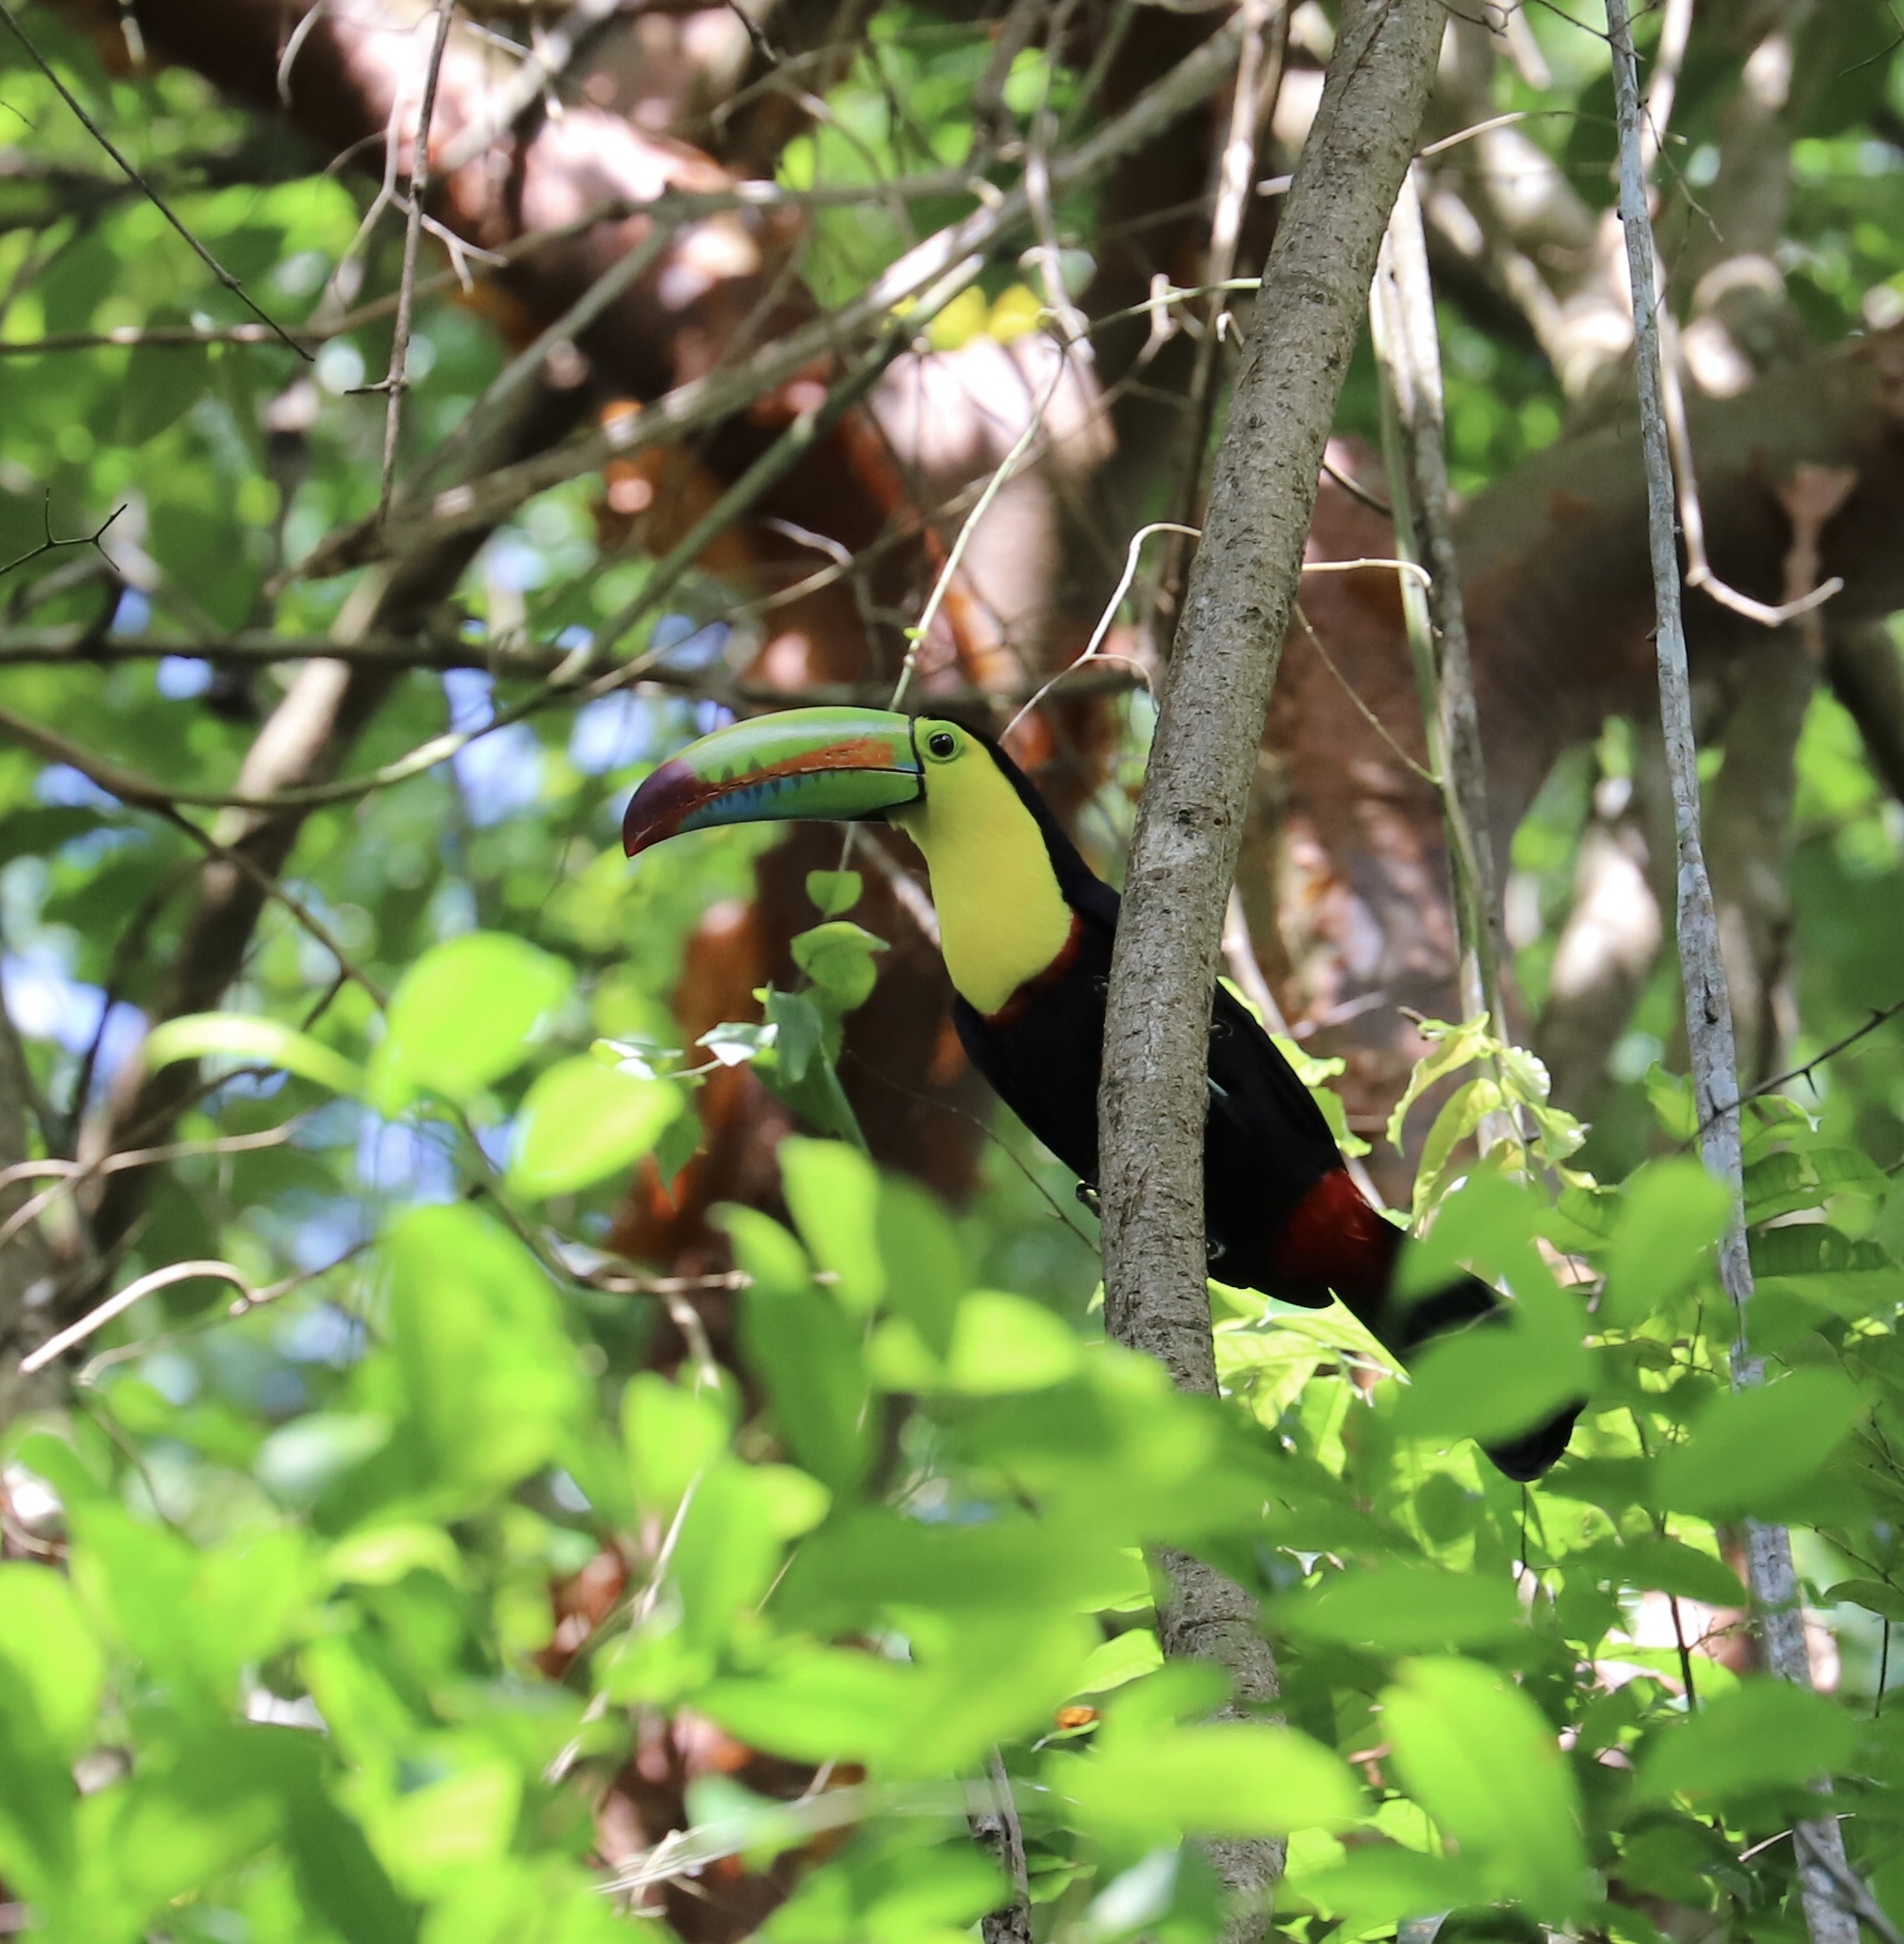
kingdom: Animalia
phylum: Chordata
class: Aves
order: Piciformes
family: Ramphastidae
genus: Ramphastos
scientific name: Ramphastos sulfuratus
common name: Keel-billed toucan
